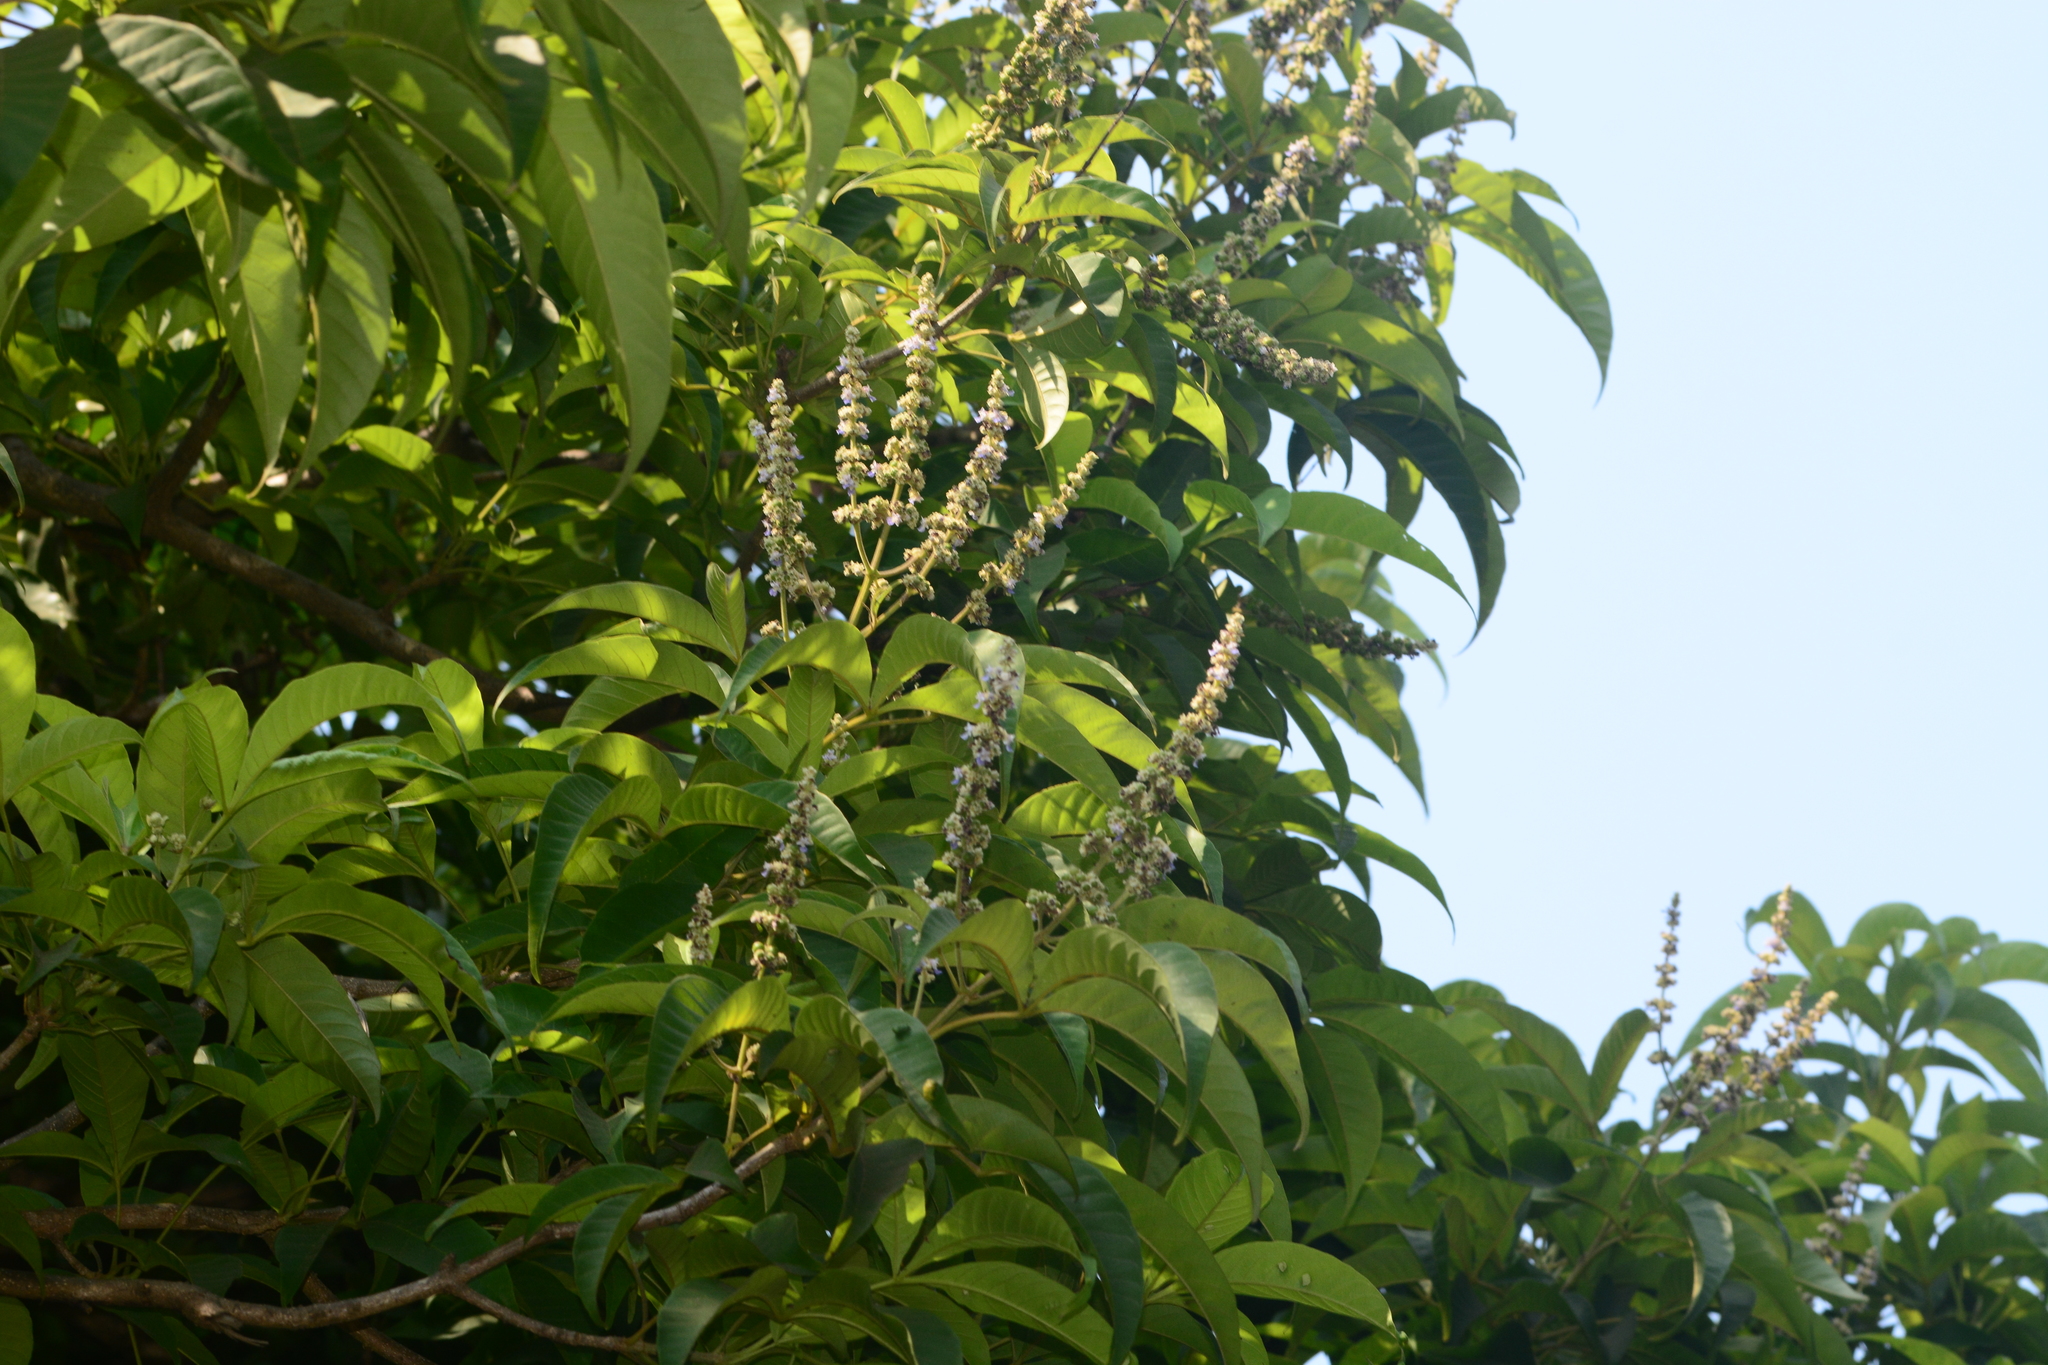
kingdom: Plantae
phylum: Tracheophyta
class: Magnoliopsida
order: Lamiales
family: Lamiaceae
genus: Vitex
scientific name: Vitex altissima
